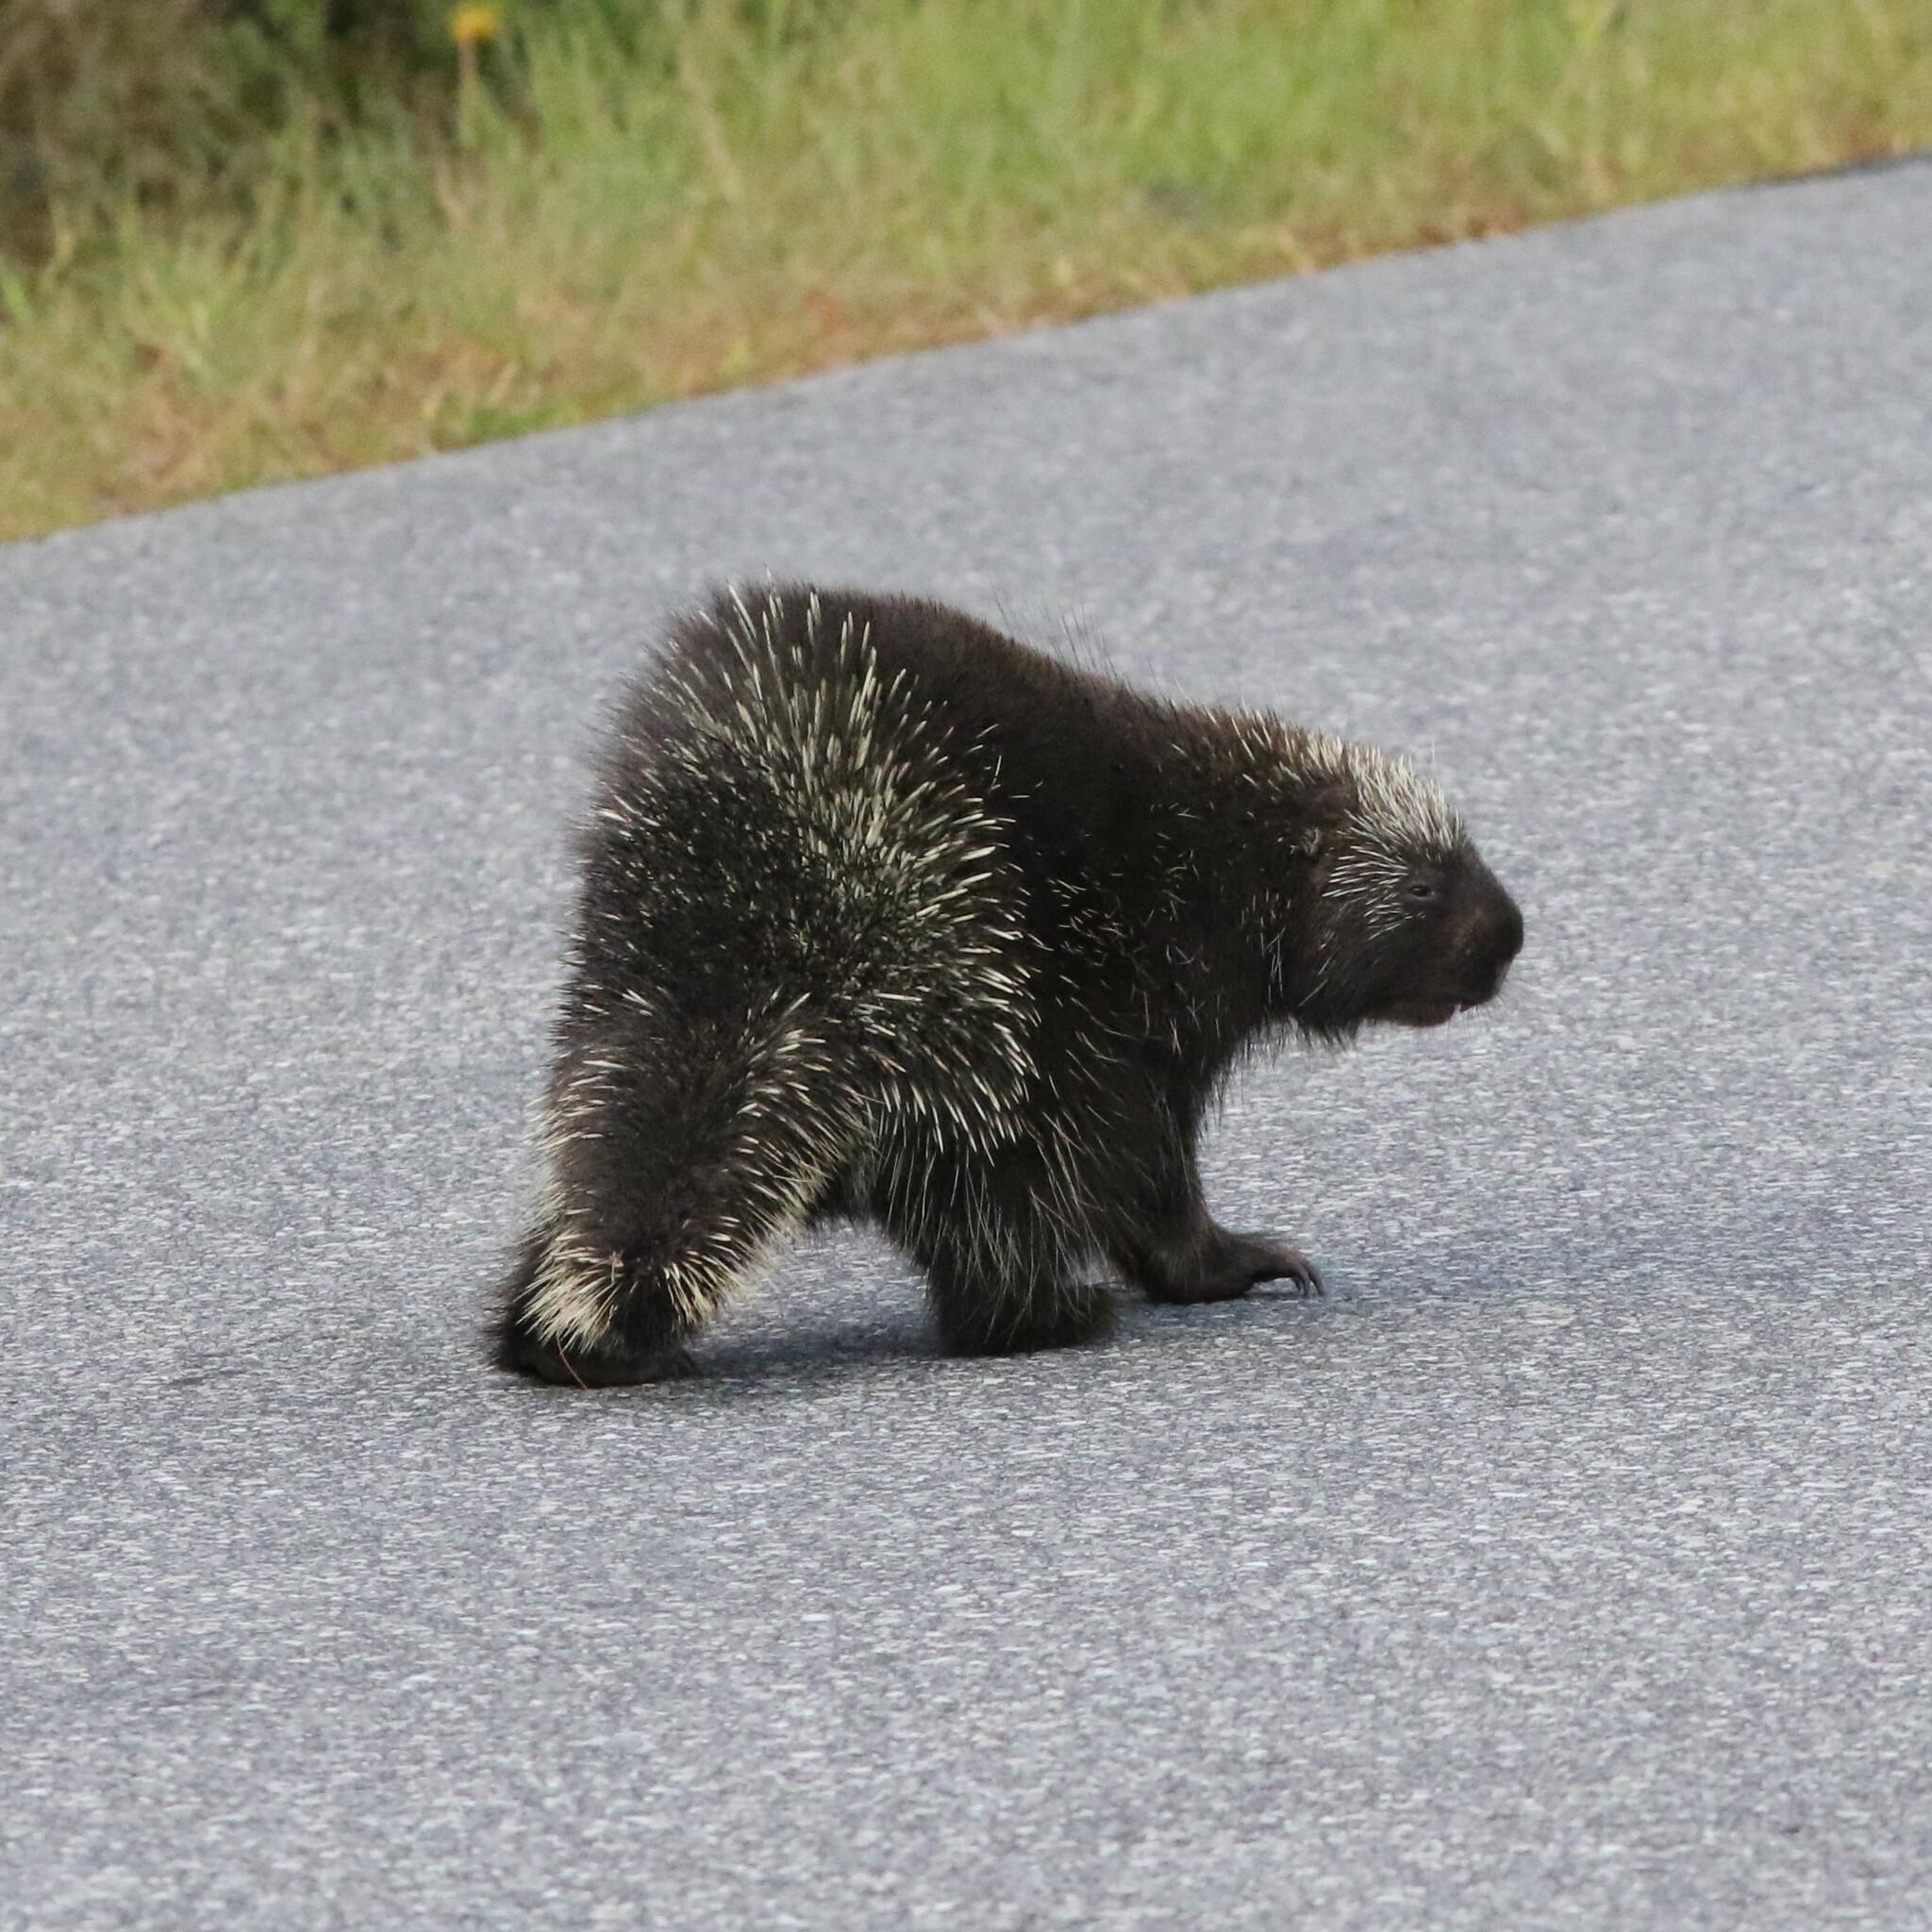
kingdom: Animalia
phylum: Chordata
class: Mammalia
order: Rodentia
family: Erethizontidae
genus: Erethizon
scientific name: Erethizon dorsatus
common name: North american porcupine
